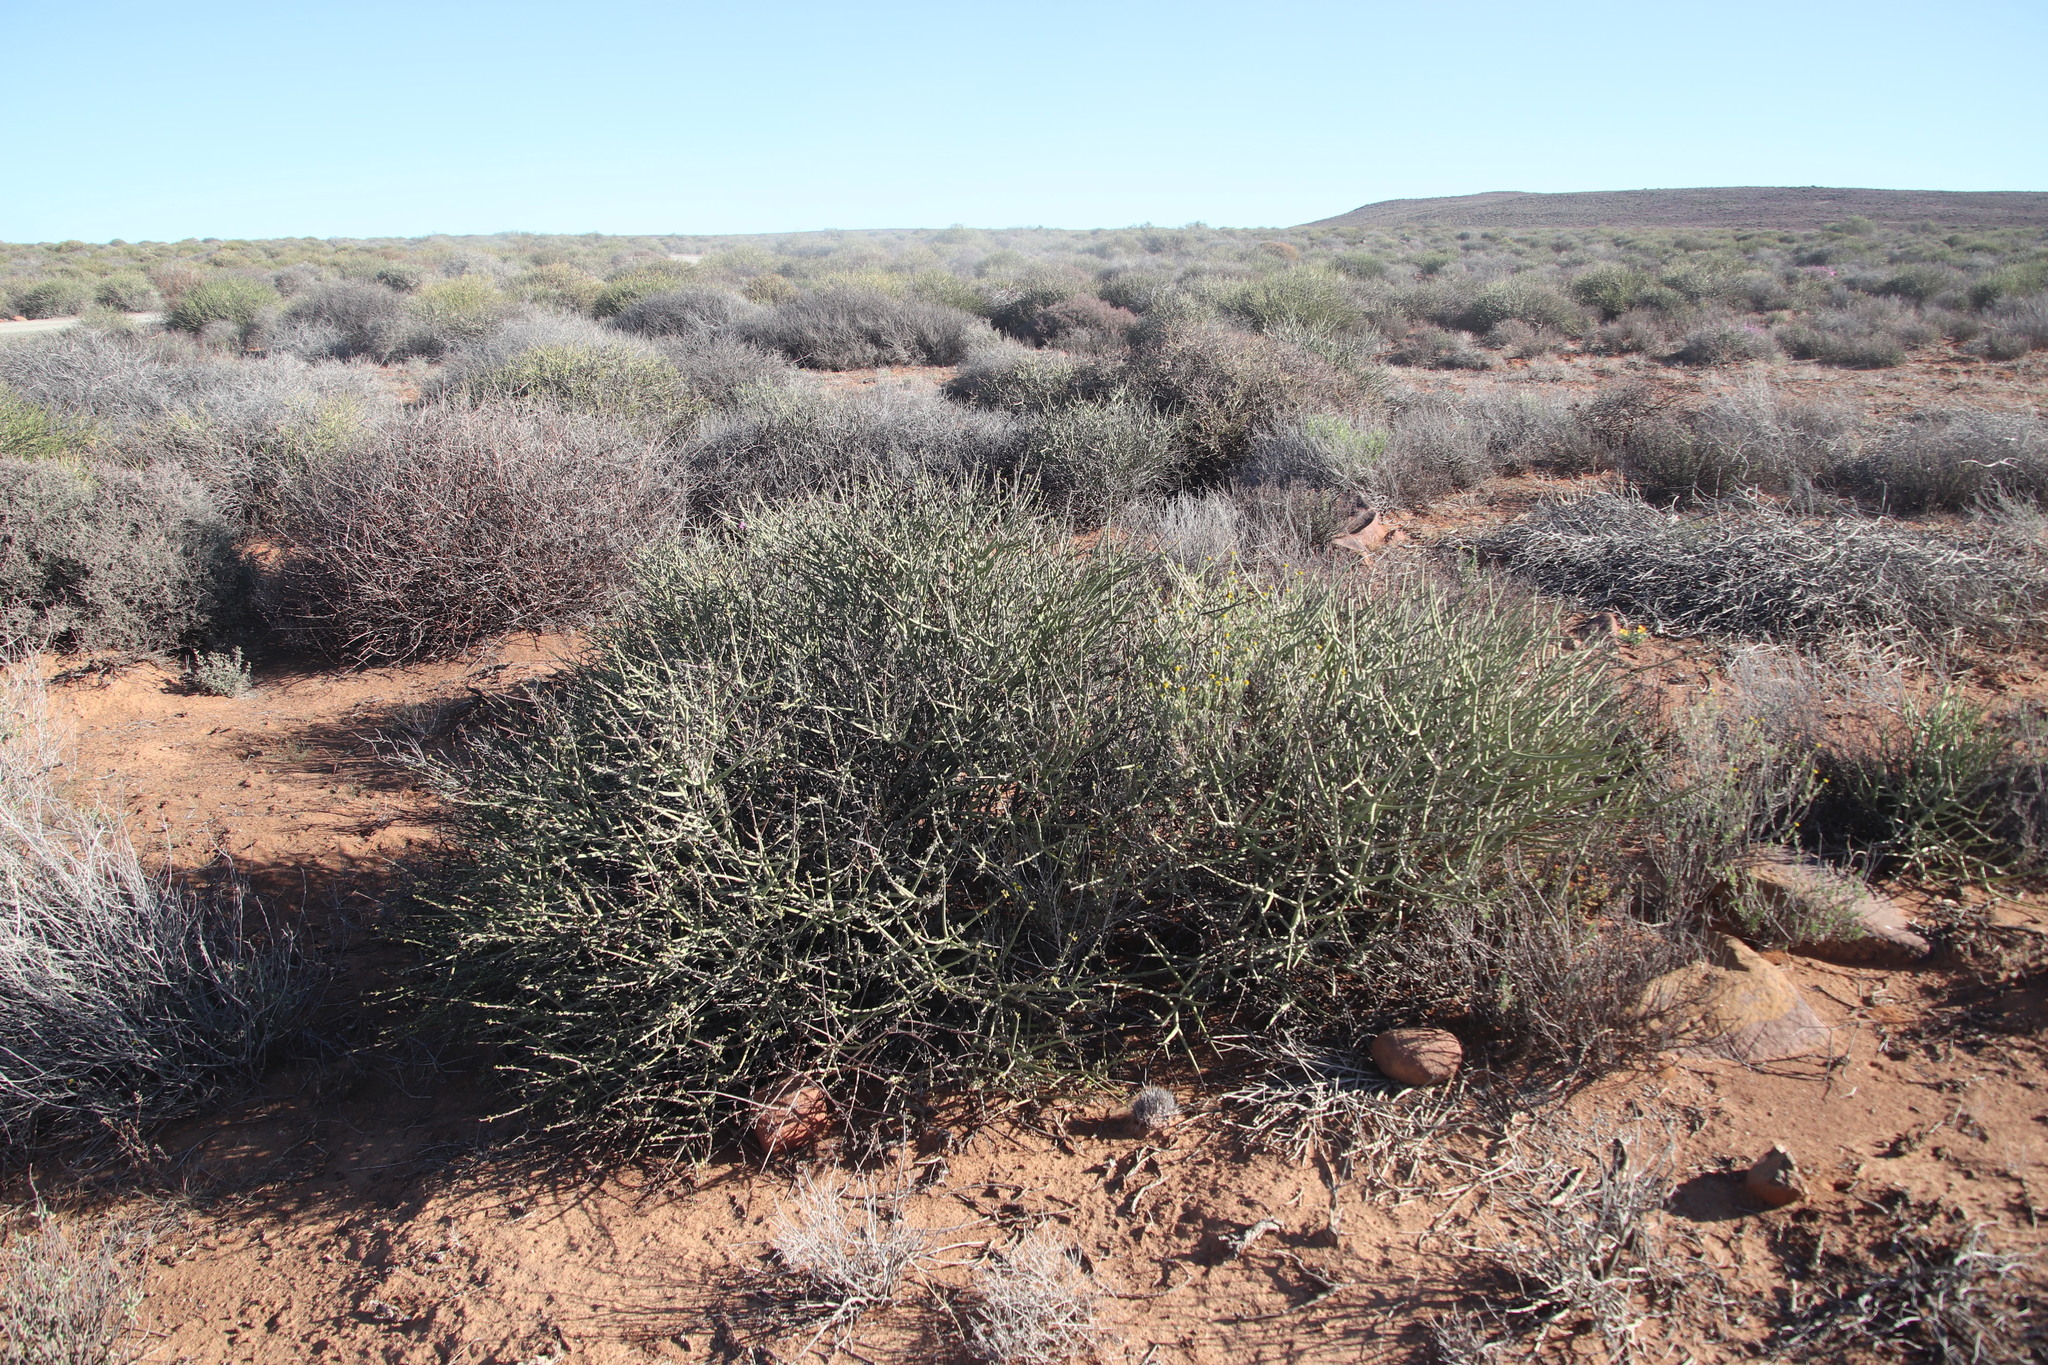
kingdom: Plantae
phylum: Tracheophyta
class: Magnoliopsida
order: Malpighiales
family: Euphorbiaceae
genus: Euphorbia
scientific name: Euphorbia rhombifolia
